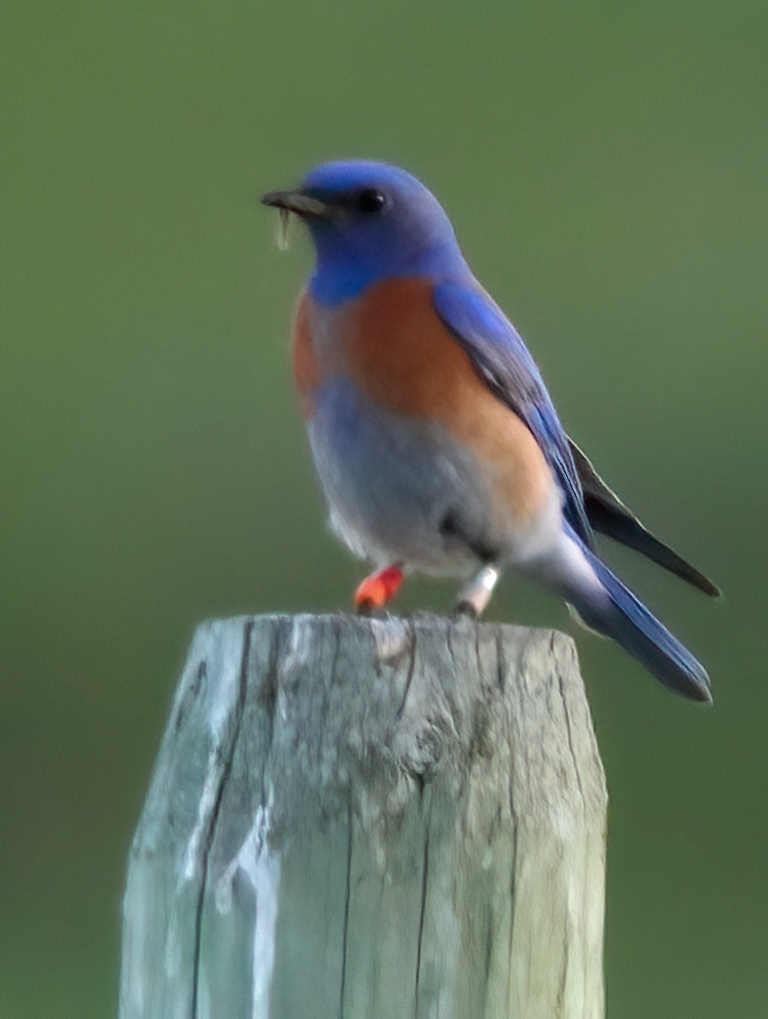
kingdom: Animalia
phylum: Chordata
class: Aves
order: Passeriformes
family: Turdidae
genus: Sialia
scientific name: Sialia mexicana
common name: Western bluebird
